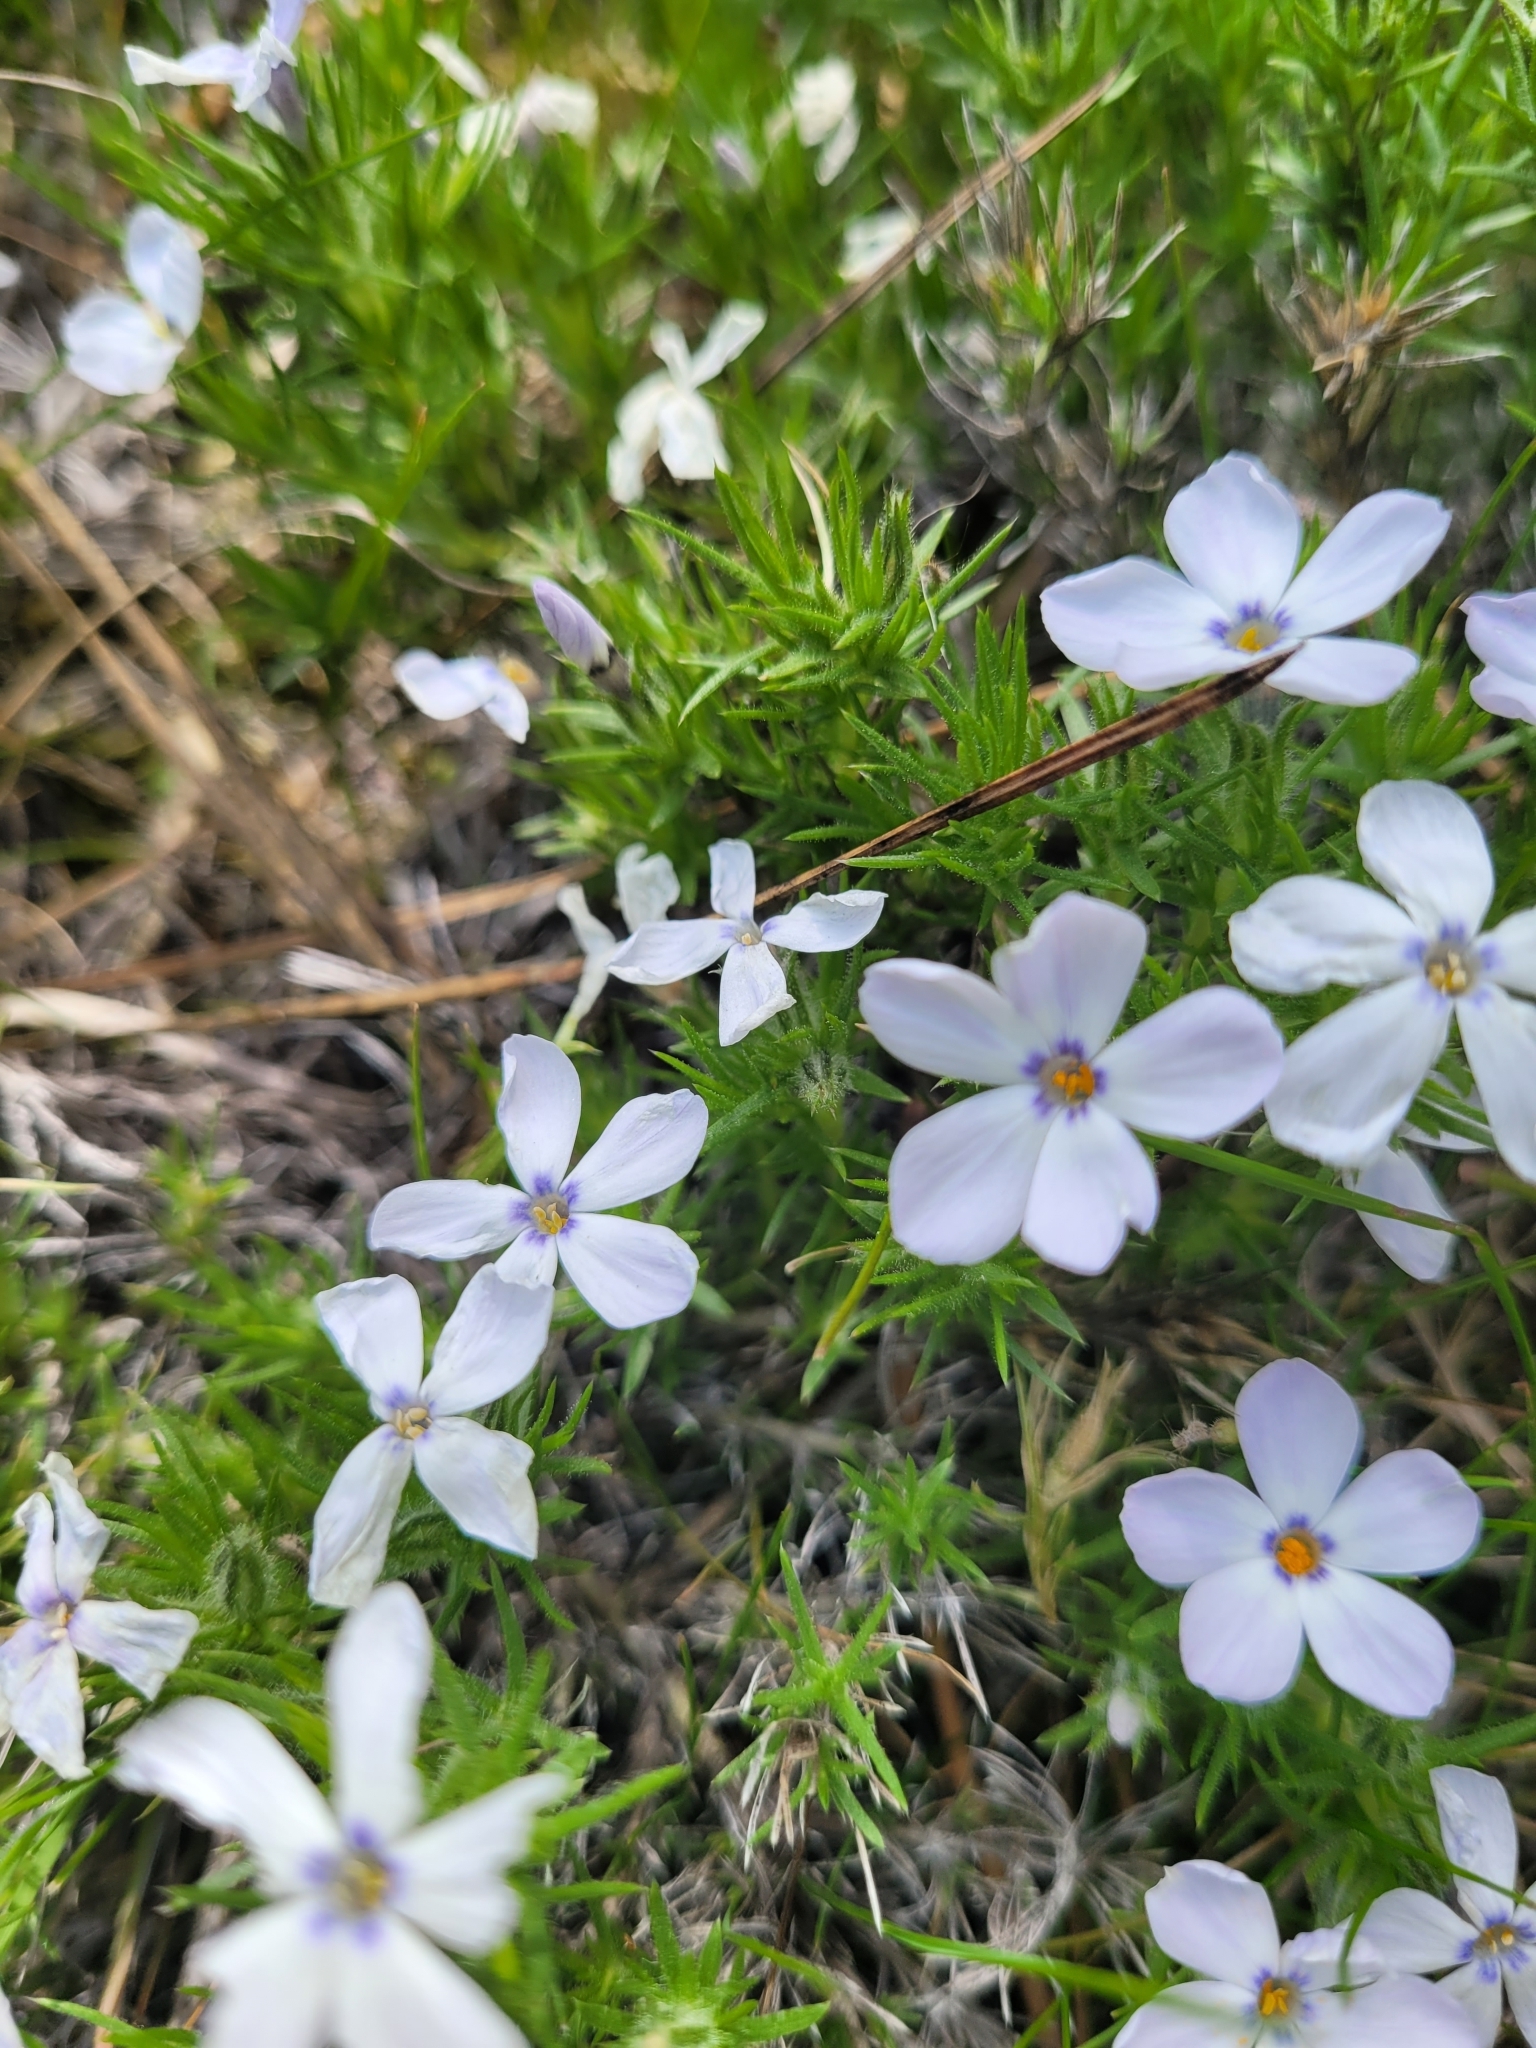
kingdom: Plantae
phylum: Tracheophyta
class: Magnoliopsida
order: Ericales
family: Polemoniaceae
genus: Phlox
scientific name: Phlox douglasii
